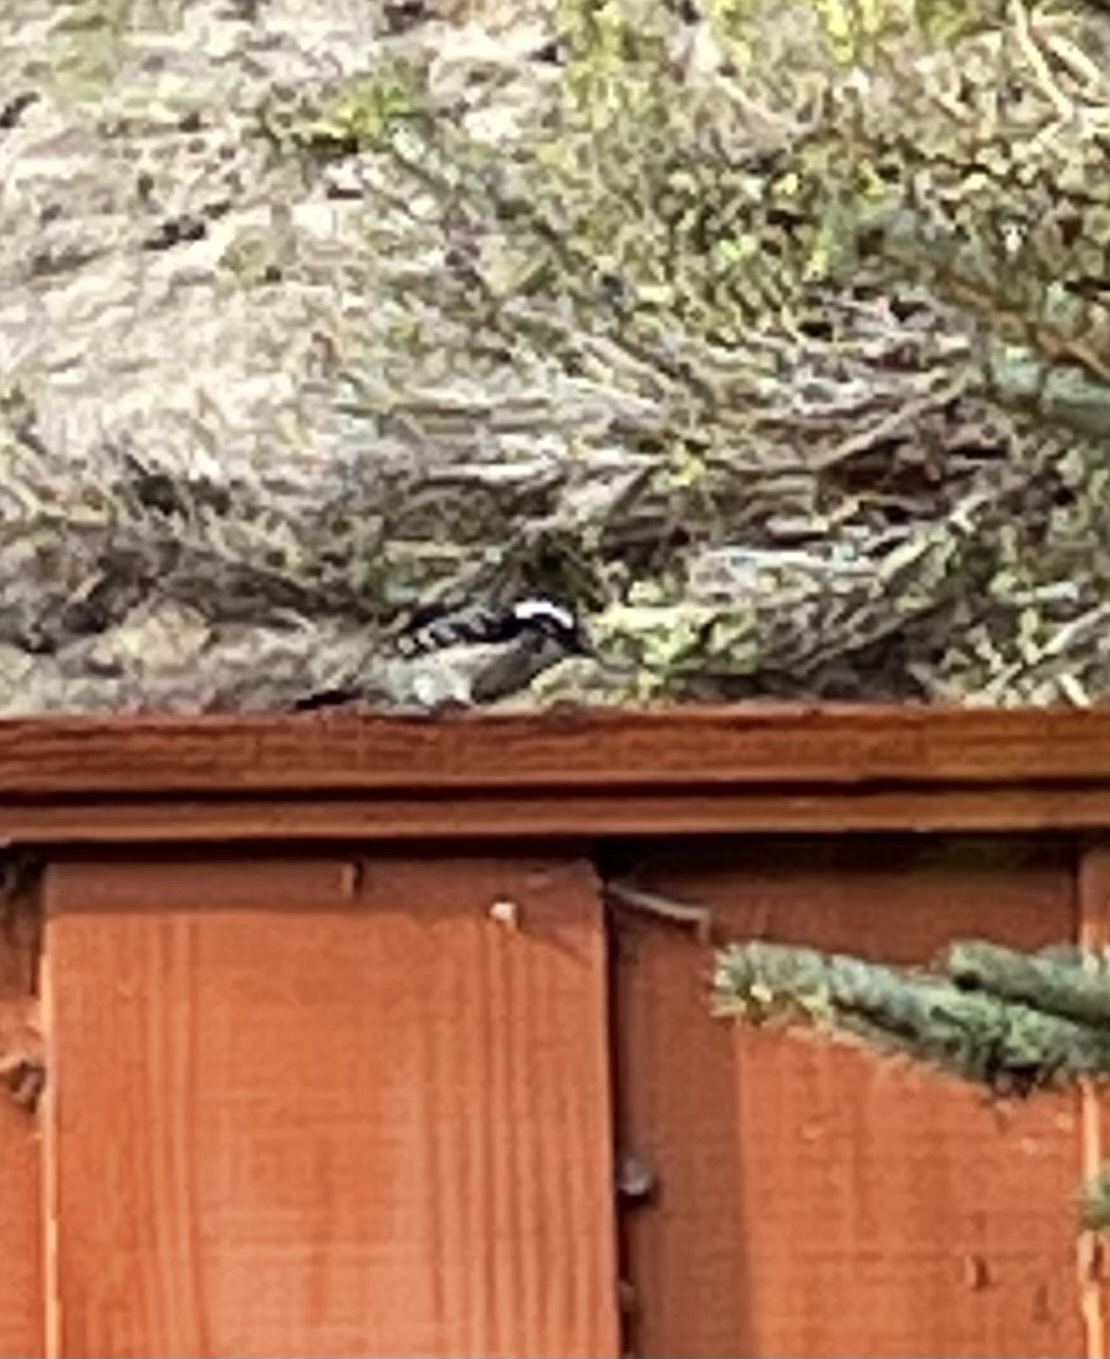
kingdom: Animalia
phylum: Chordata
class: Aves
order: Piciformes
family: Picidae
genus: Dryobates
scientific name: Dryobates nuttallii
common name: Nuttall's woodpecker
